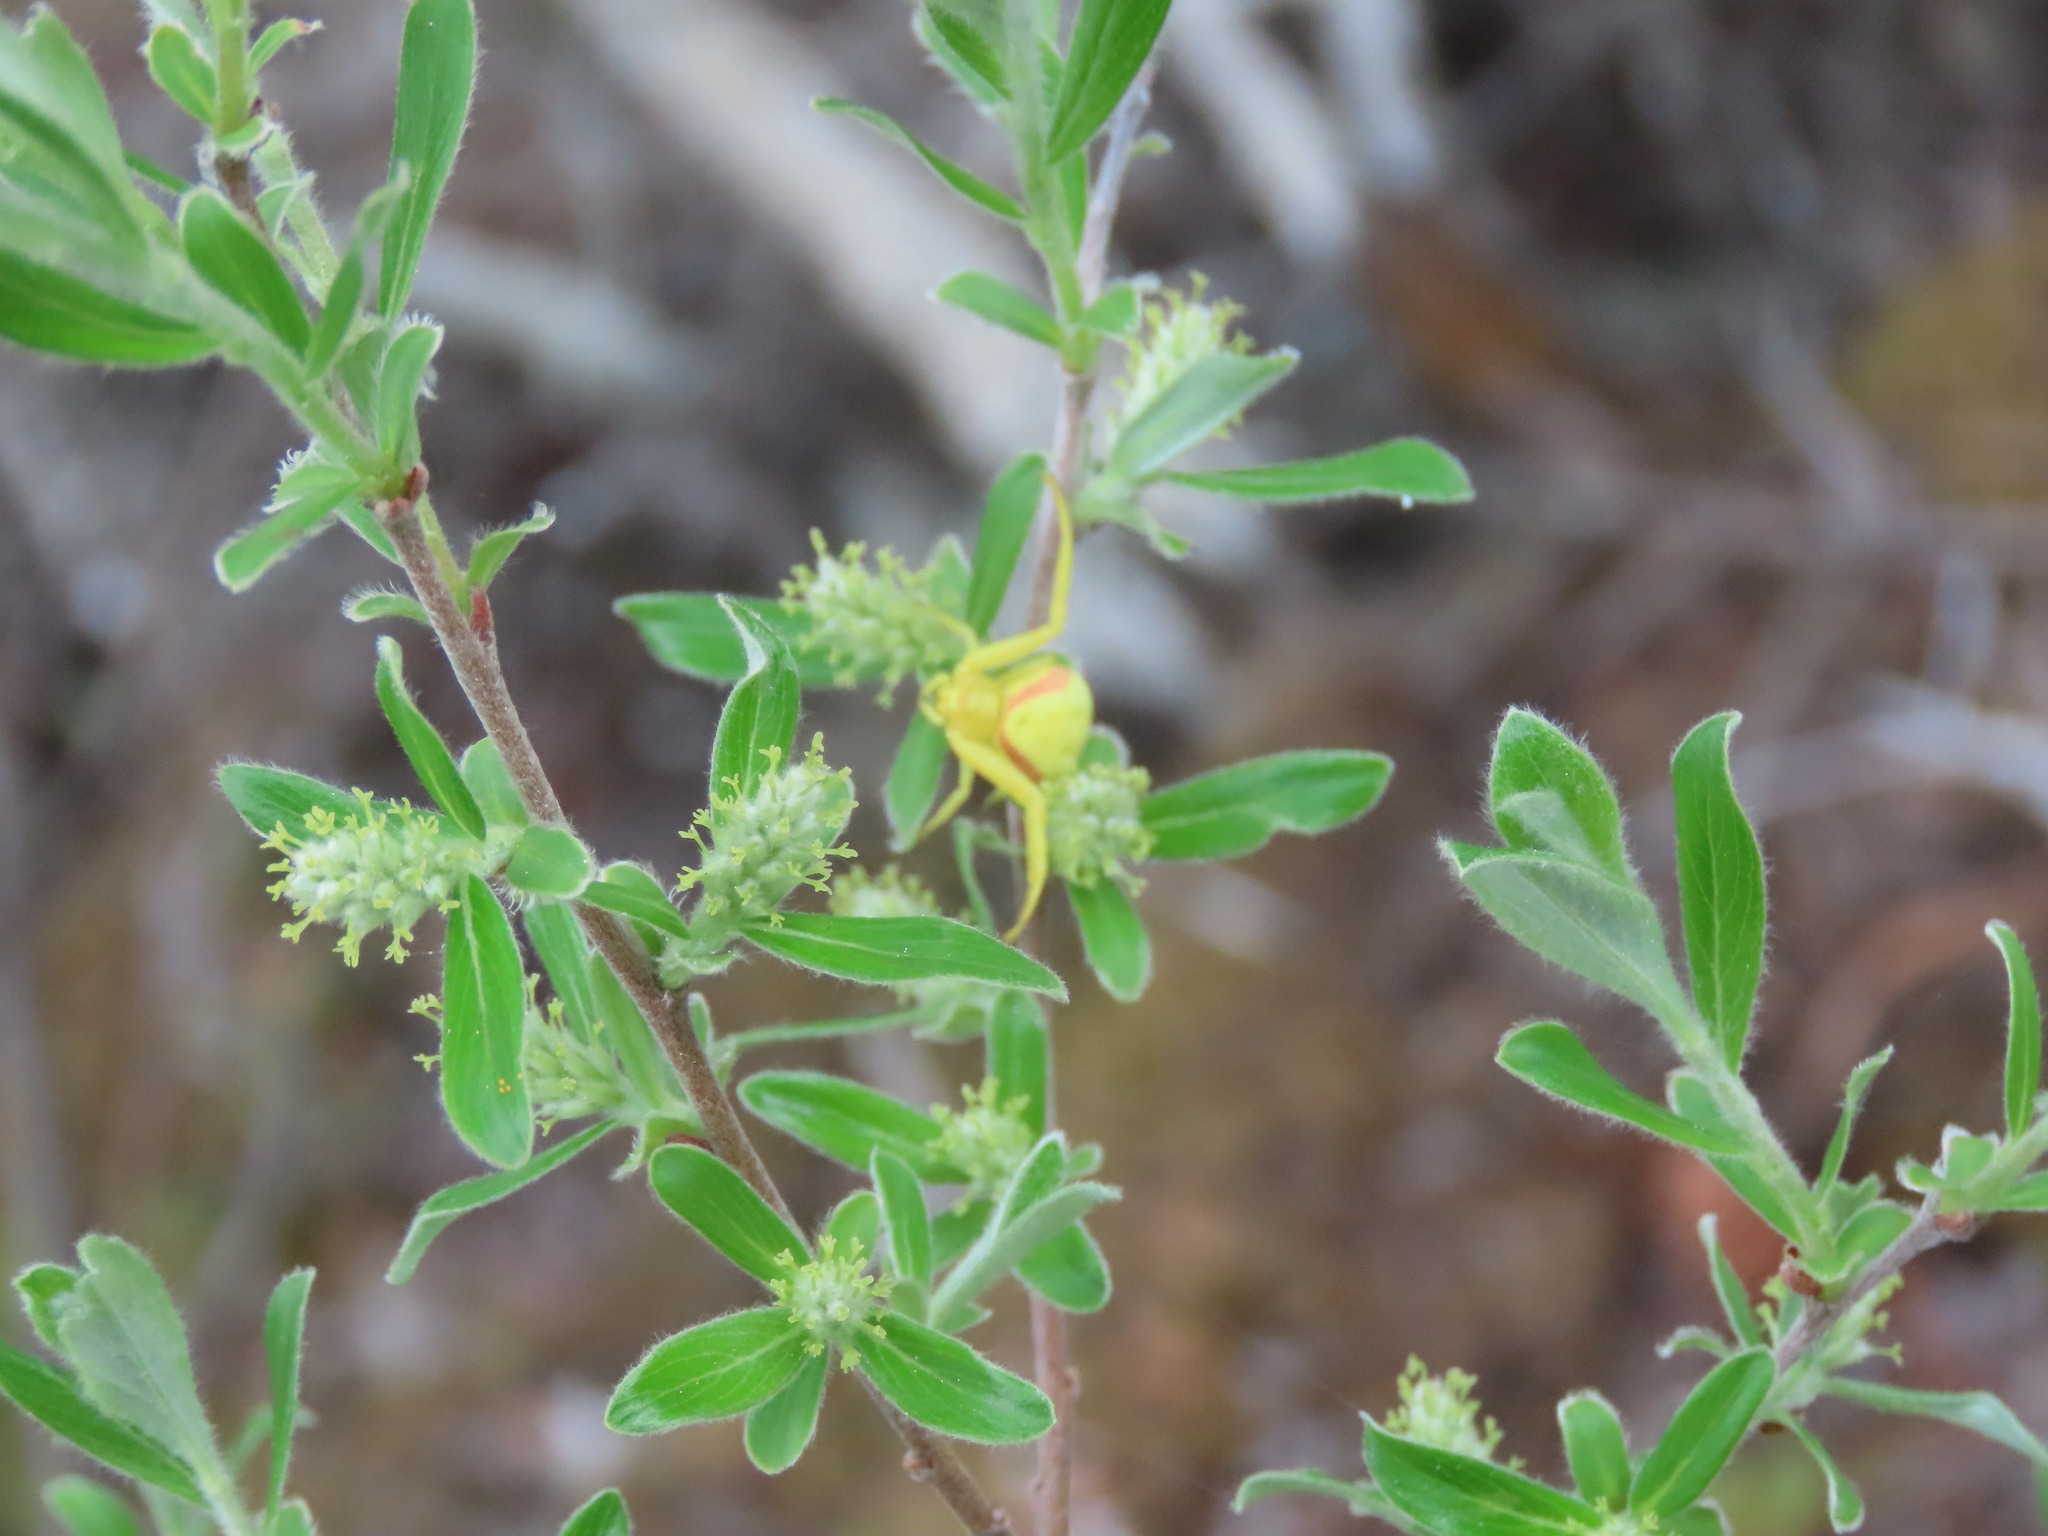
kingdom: Animalia
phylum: Arthropoda
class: Arachnida
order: Araneae
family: Thomisidae
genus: Misumena
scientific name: Misumena vatia
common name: Goldenrod crab spider
